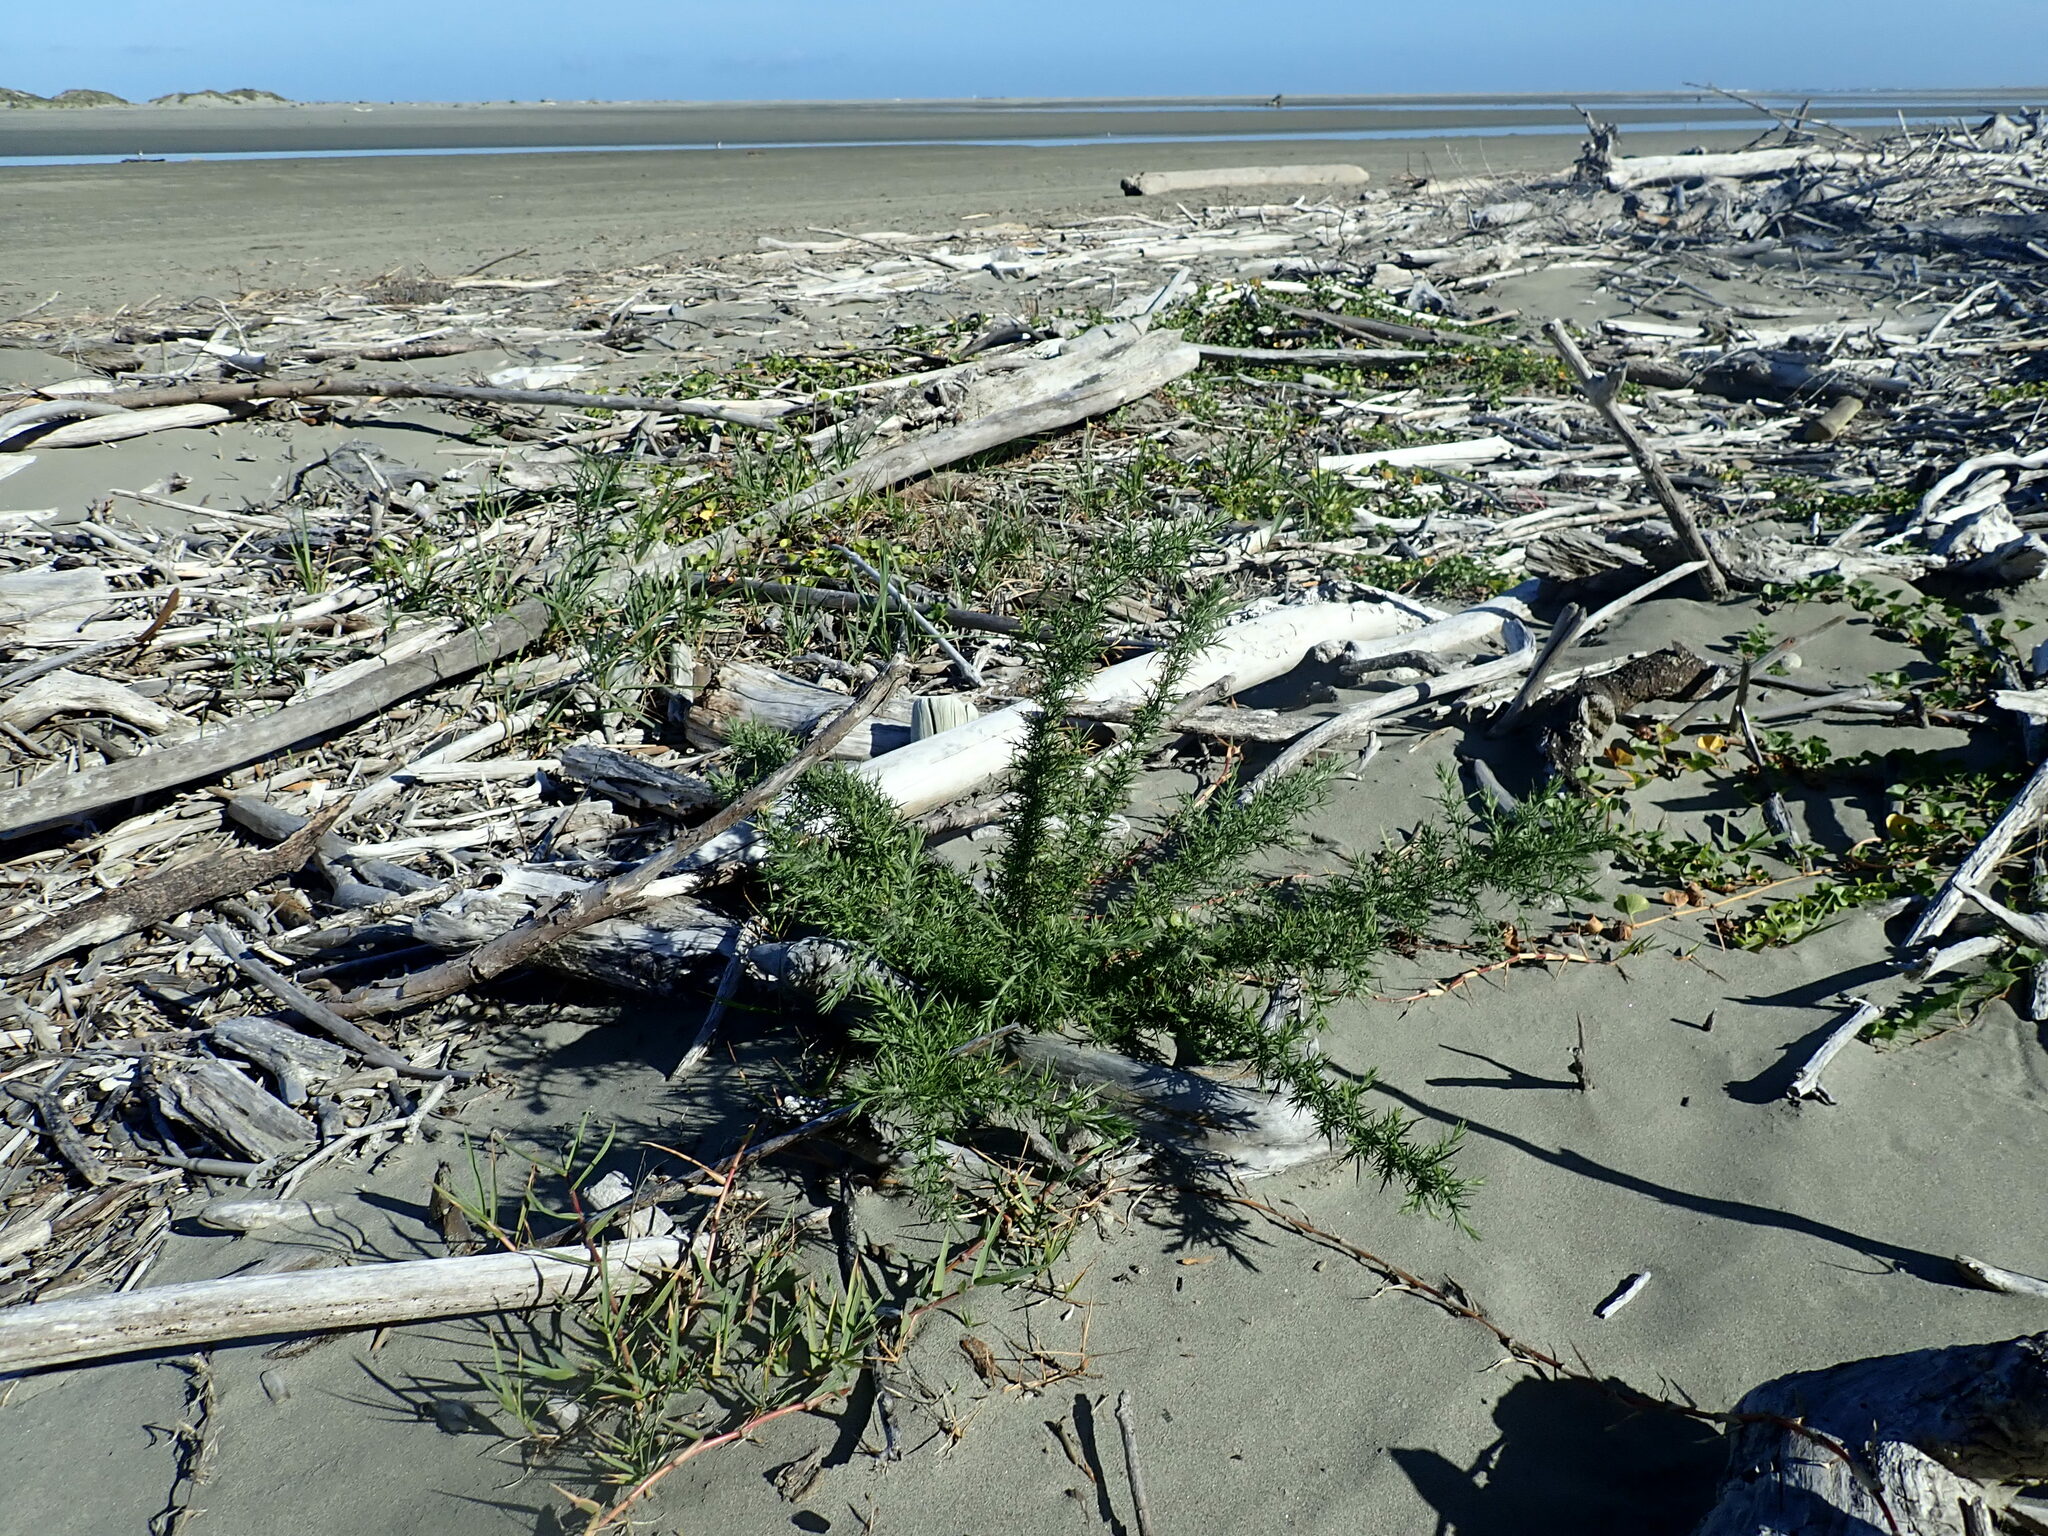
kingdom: Plantae
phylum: Tracheophyta
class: Magnoliopsida
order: Fabales
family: Fabaceae
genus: Ulex
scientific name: Ulex europaeus
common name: Common gorse
